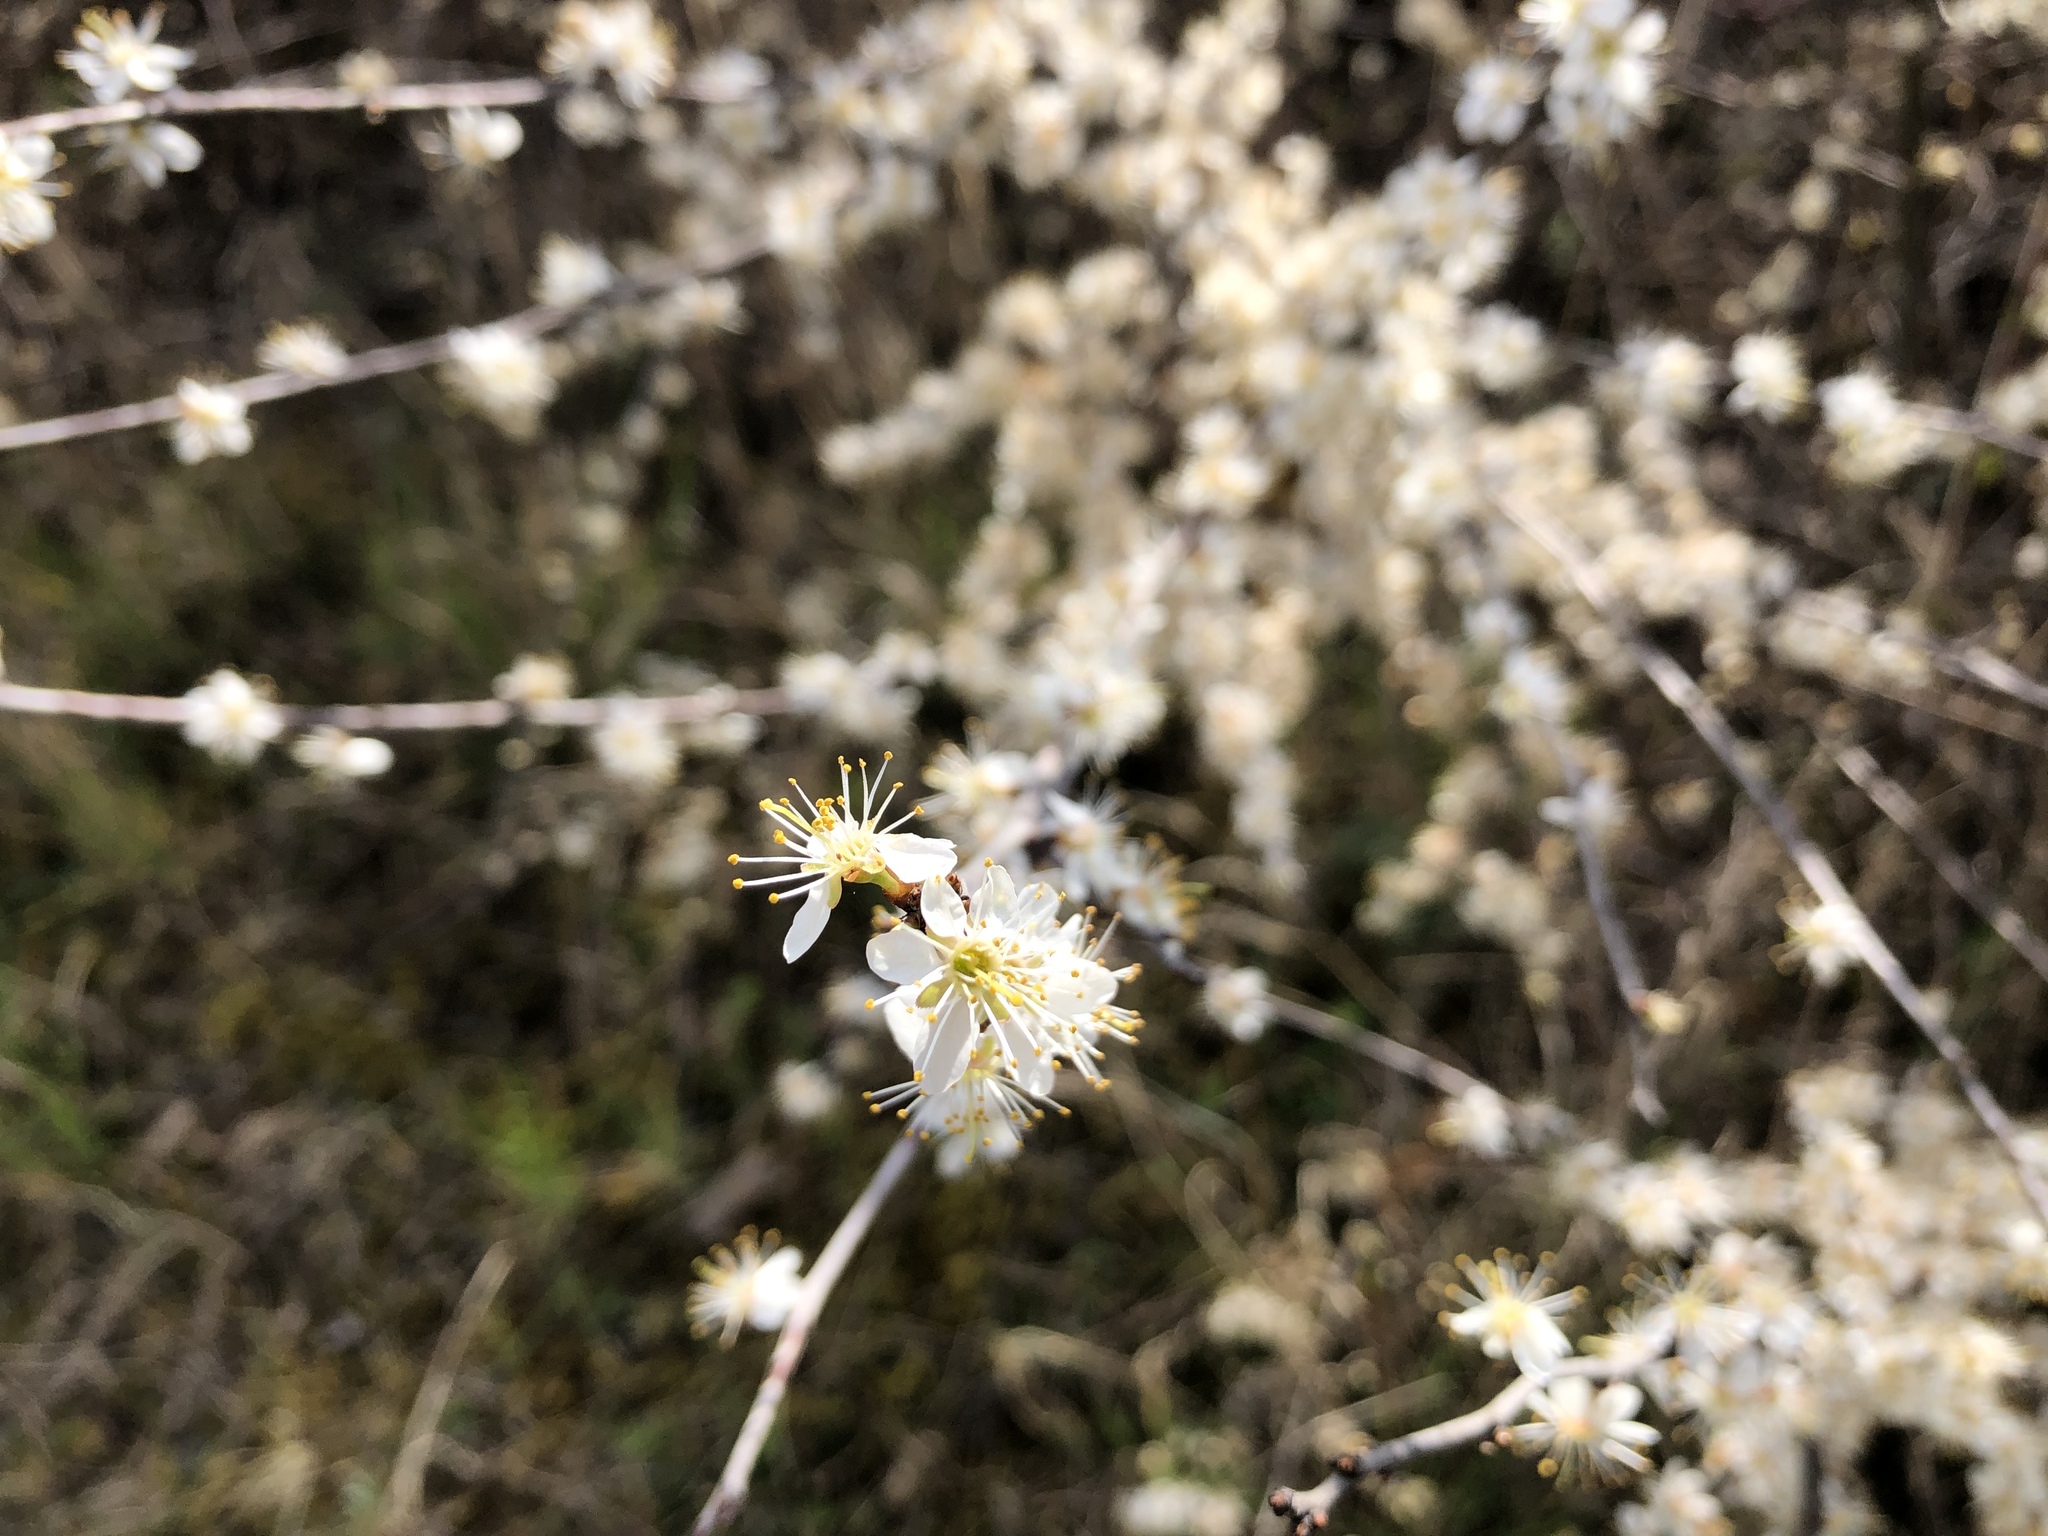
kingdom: Plantae
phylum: Tracheophyta
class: Magnoliopsida
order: Rosales
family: Rosaceae
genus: Prunus
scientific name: Prunus spinosa
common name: Blackthorn
